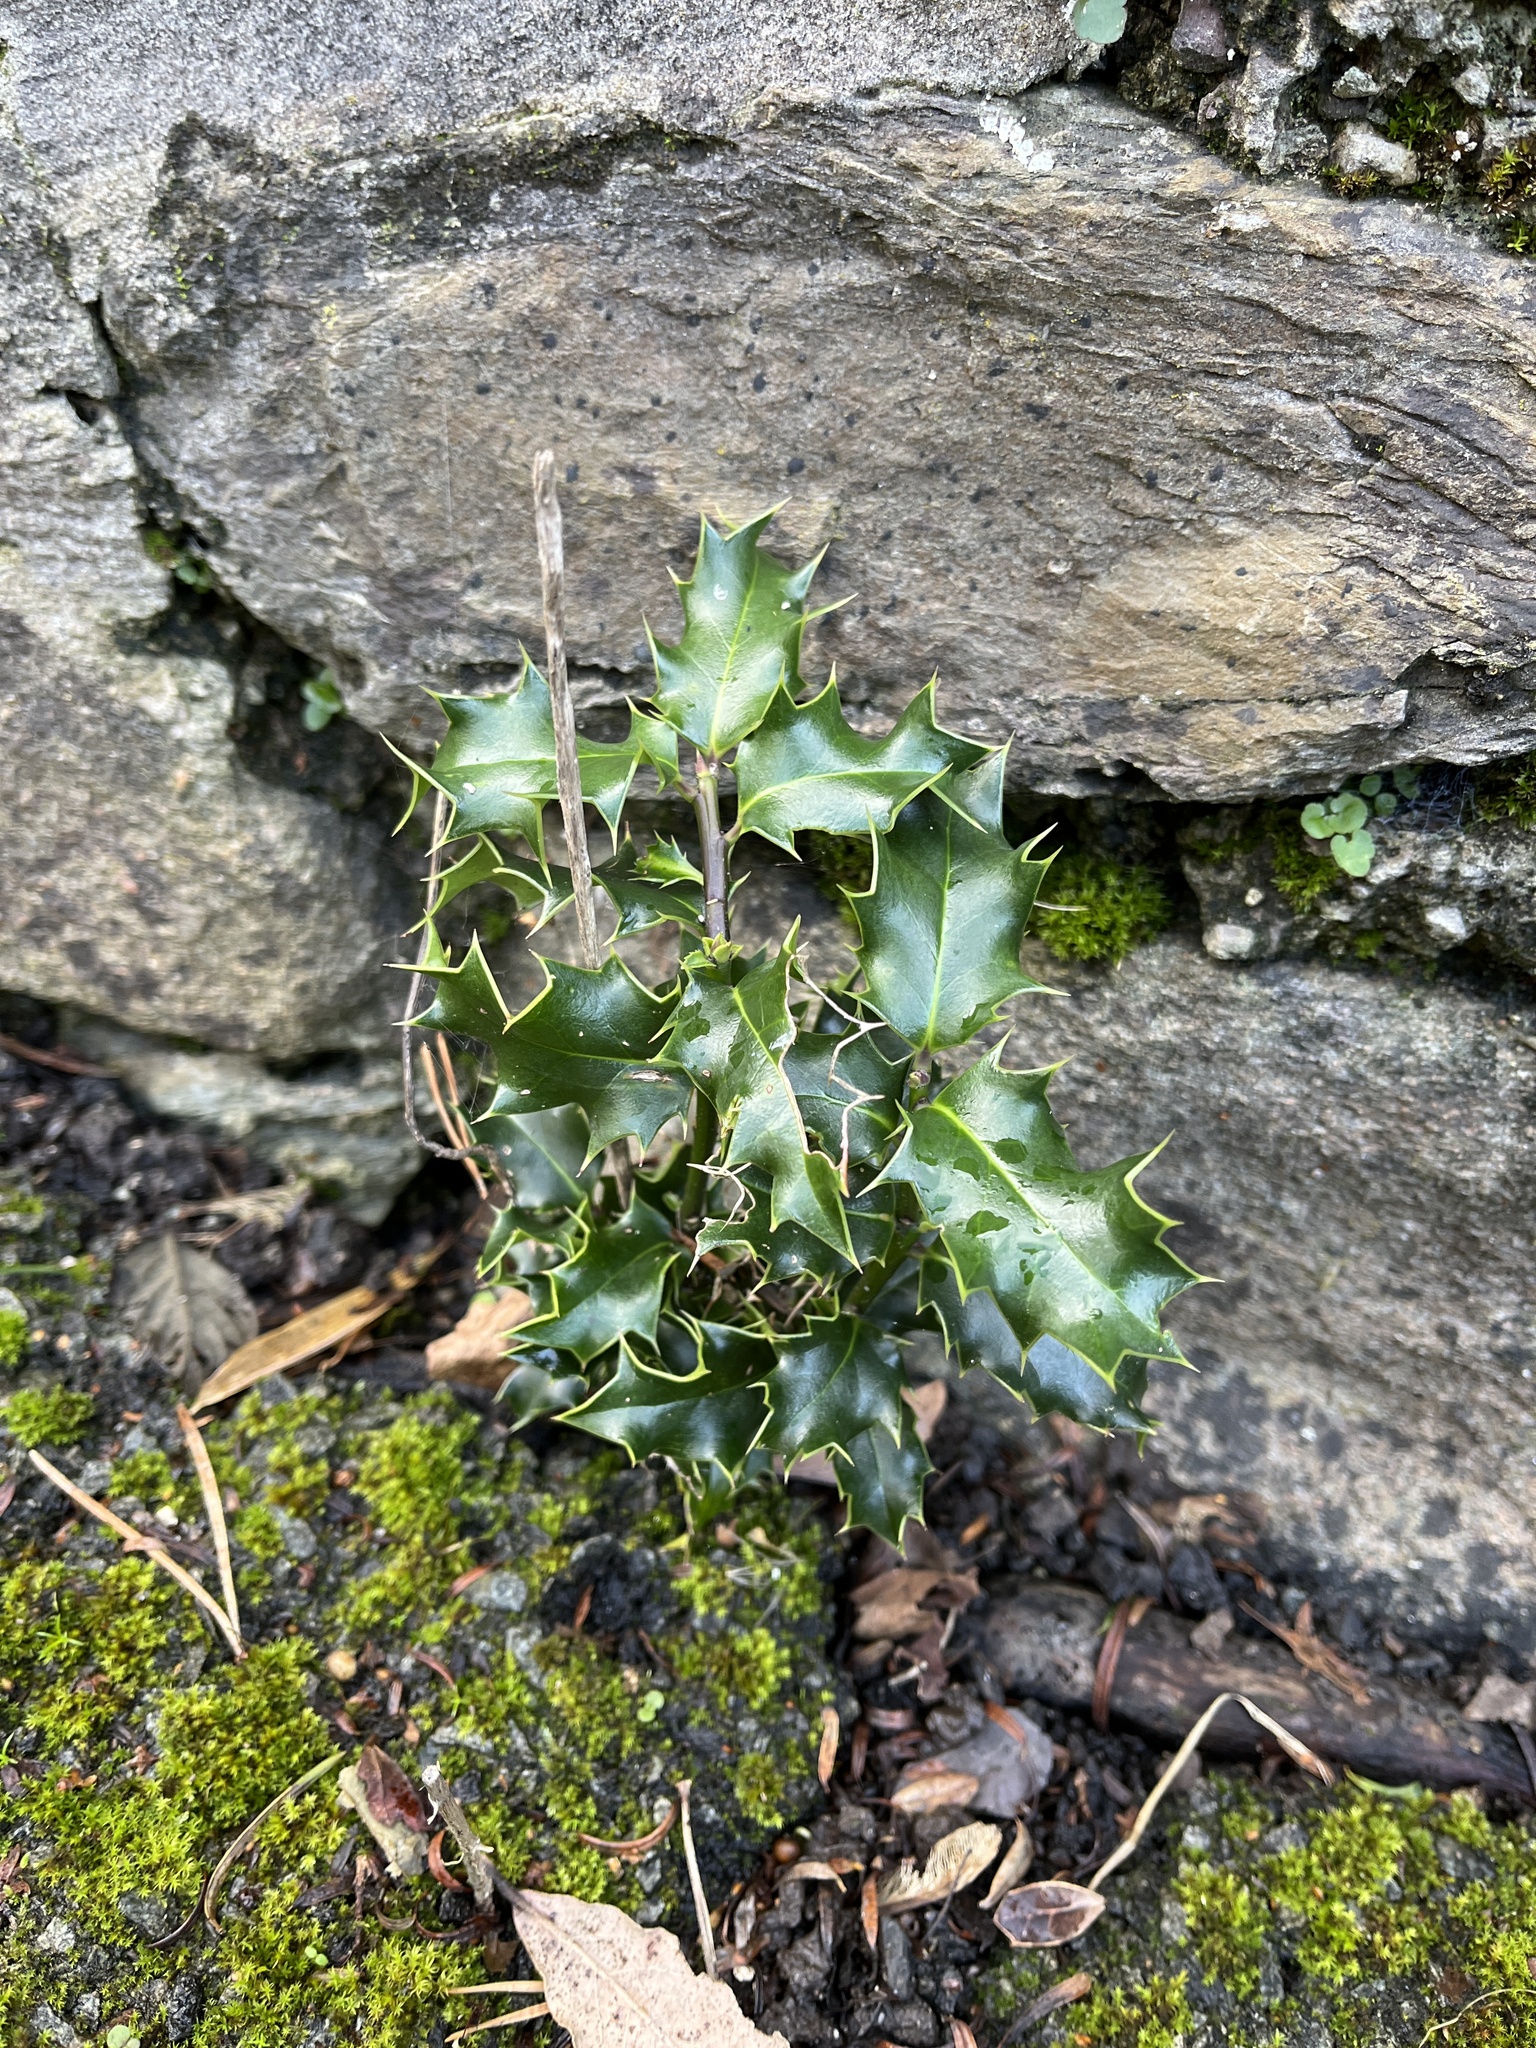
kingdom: Plantae
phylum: Tracheophyta
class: Magnoliopsida
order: Aquifoliales
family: Aquifoliaceae
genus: Ilex
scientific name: Ilex aquifolium
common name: English holly
